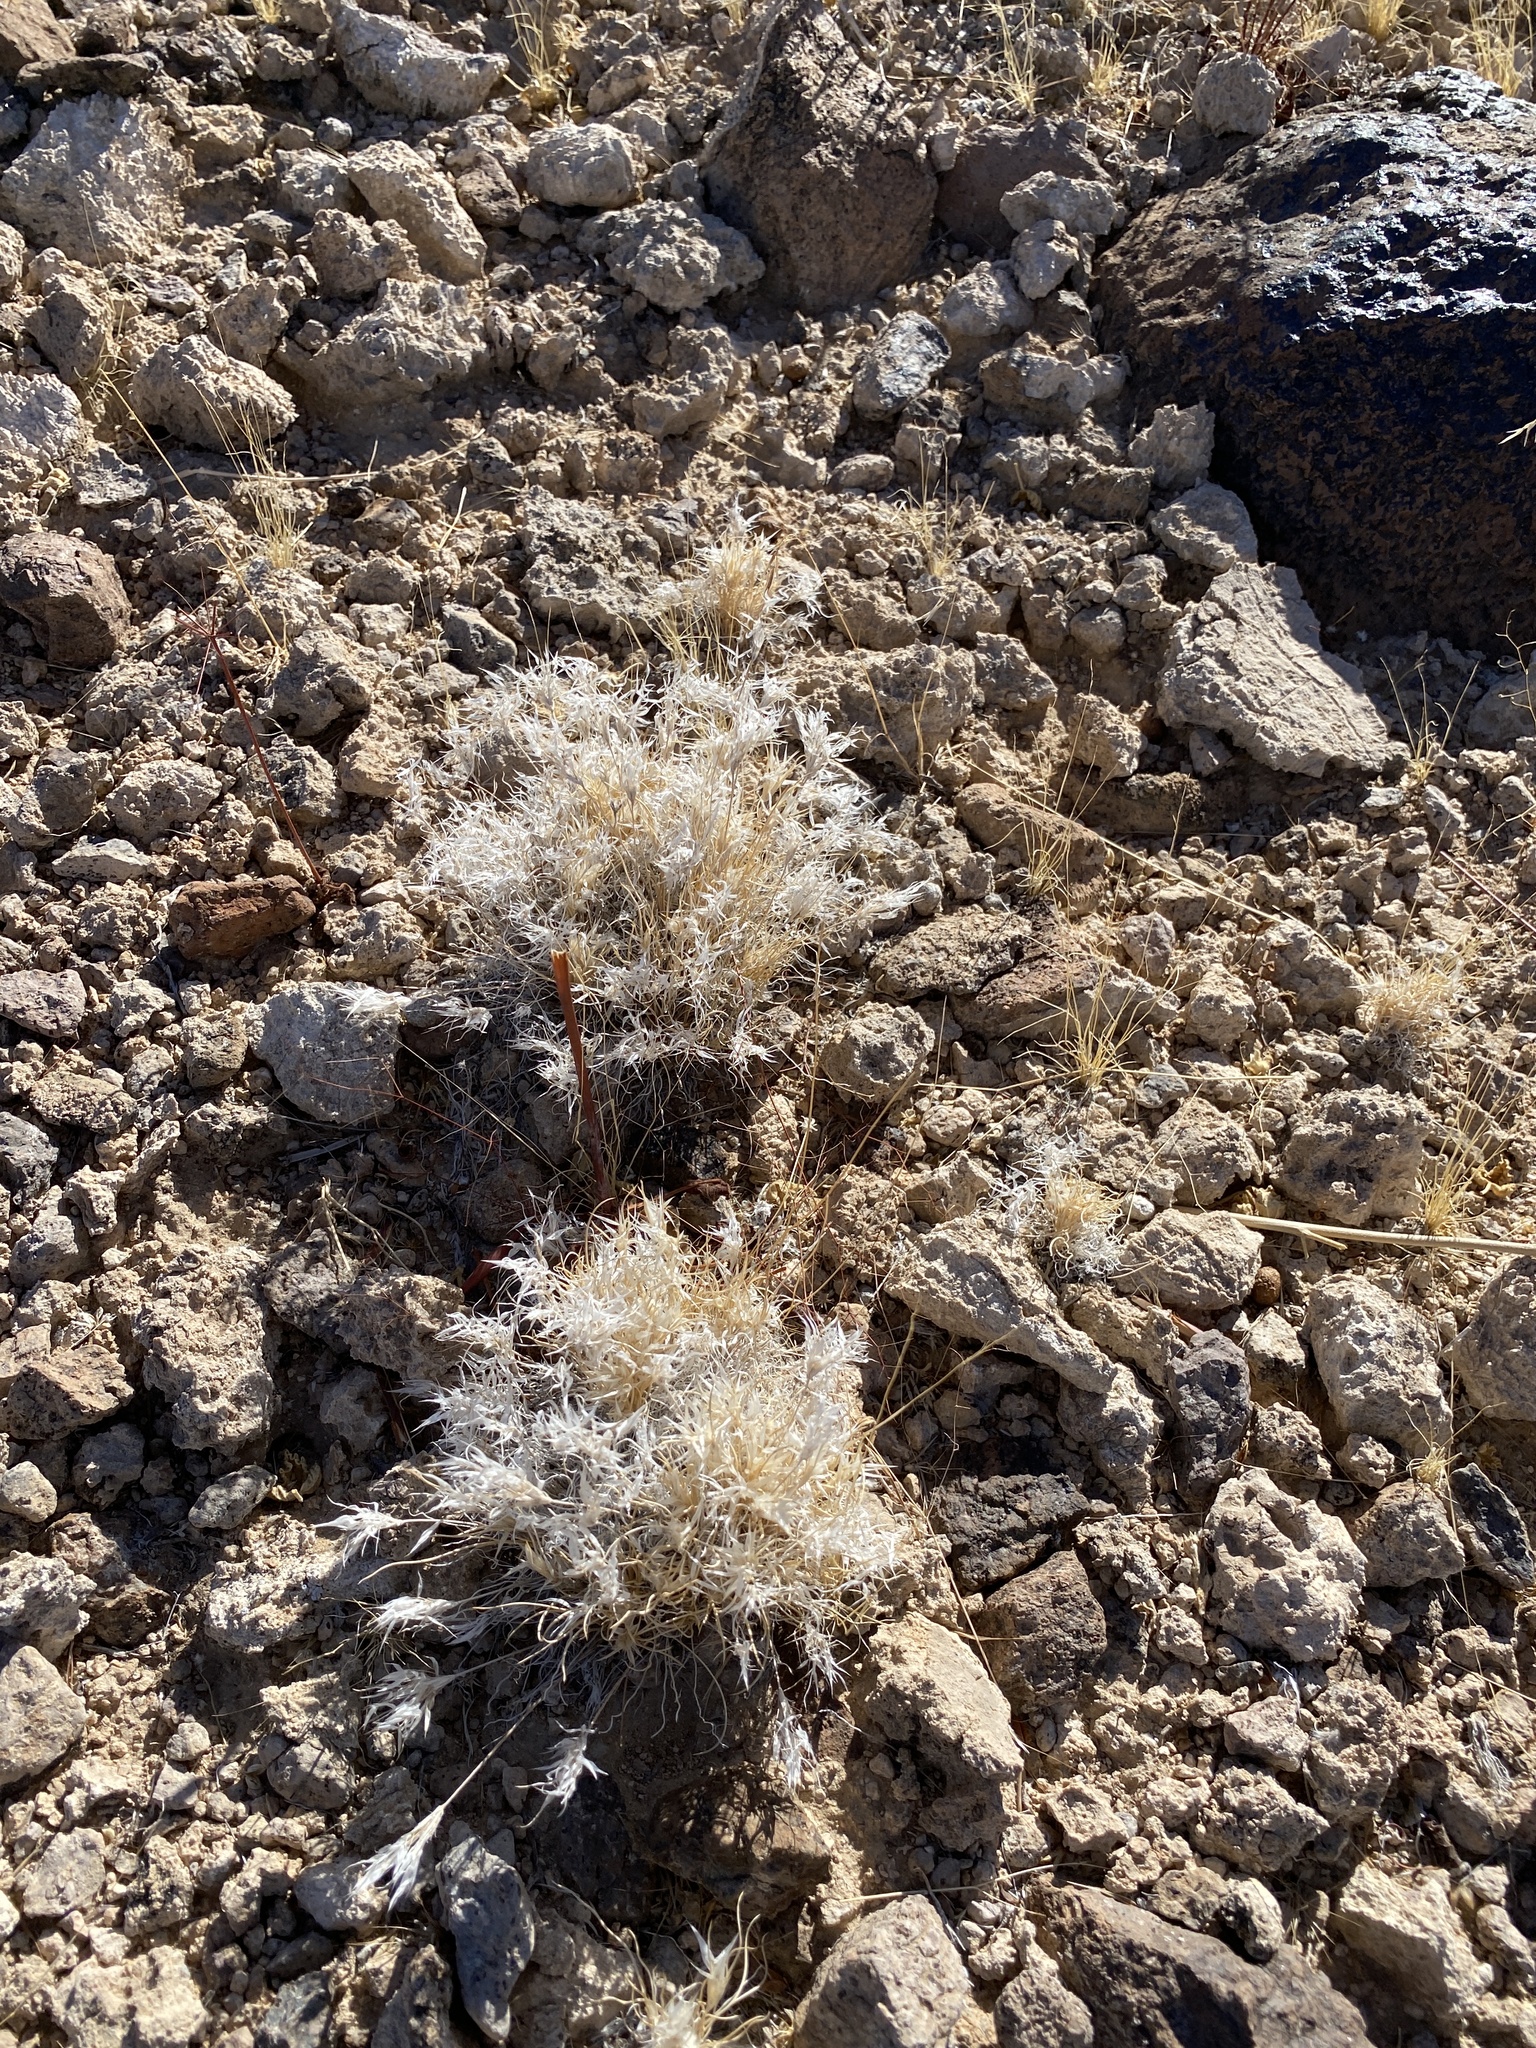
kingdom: Plantae
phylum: Tracheophyta
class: Liliopsida
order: Poales
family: Poaceae
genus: Dasyochloa
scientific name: Dasyochloa pulchella
